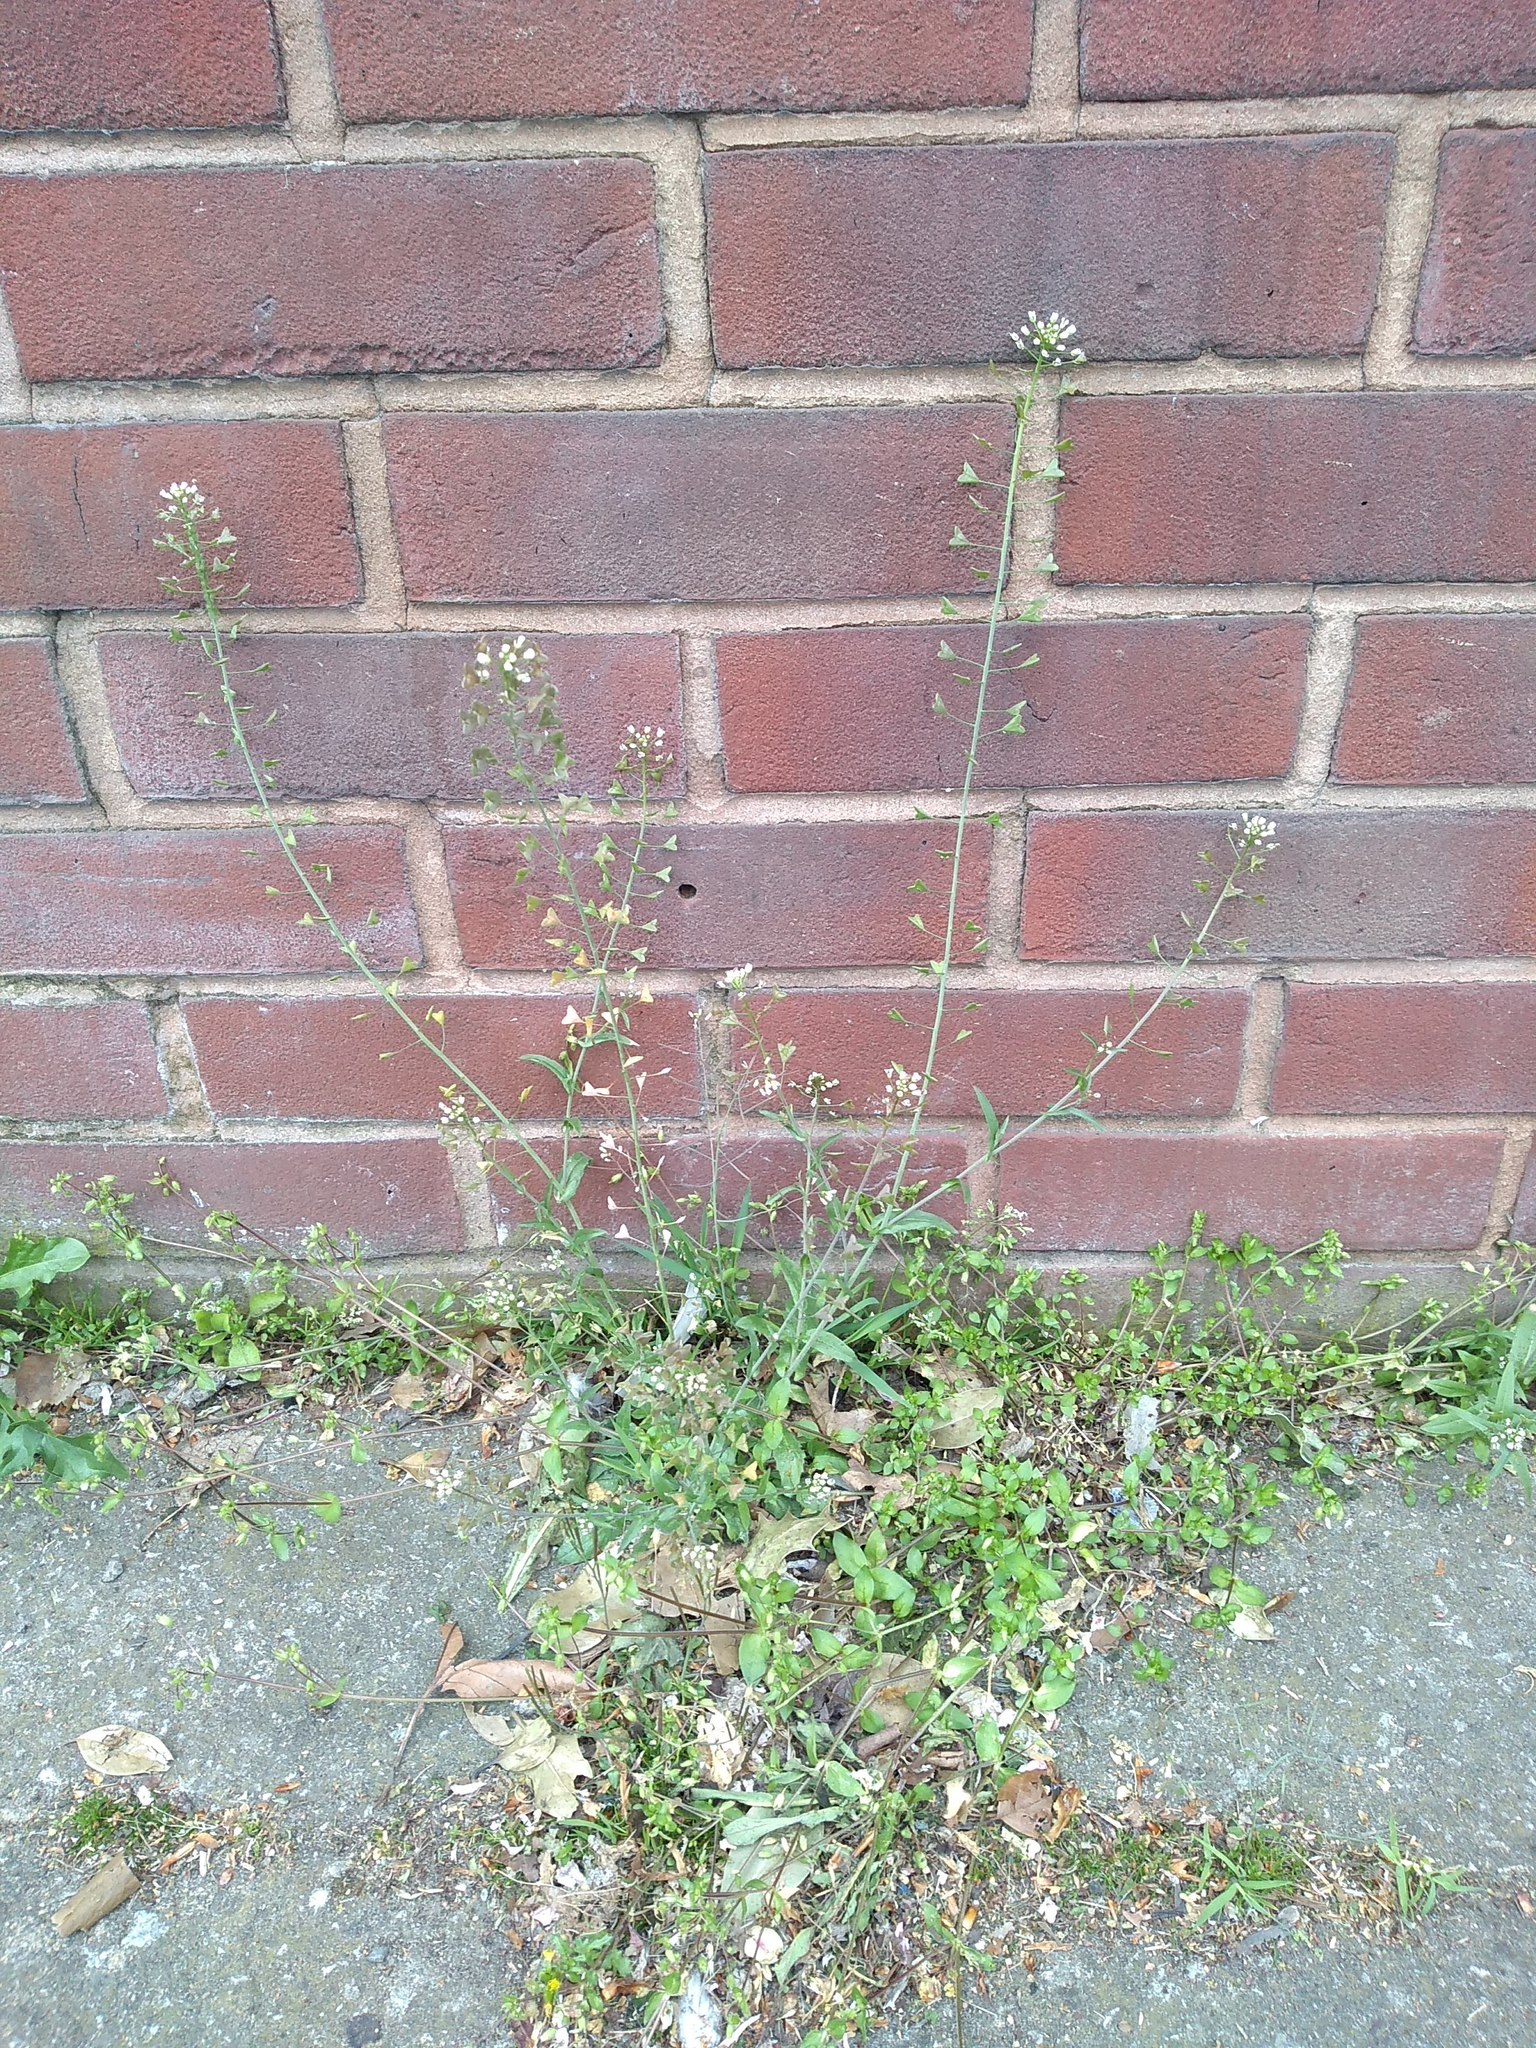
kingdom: Plantae
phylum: Tracheophyta
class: Magnoliopsida
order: Brassicales
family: Brassicaceae
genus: Capsella
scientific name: Capsella bursa-pastoris
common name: Shepherd's purse
